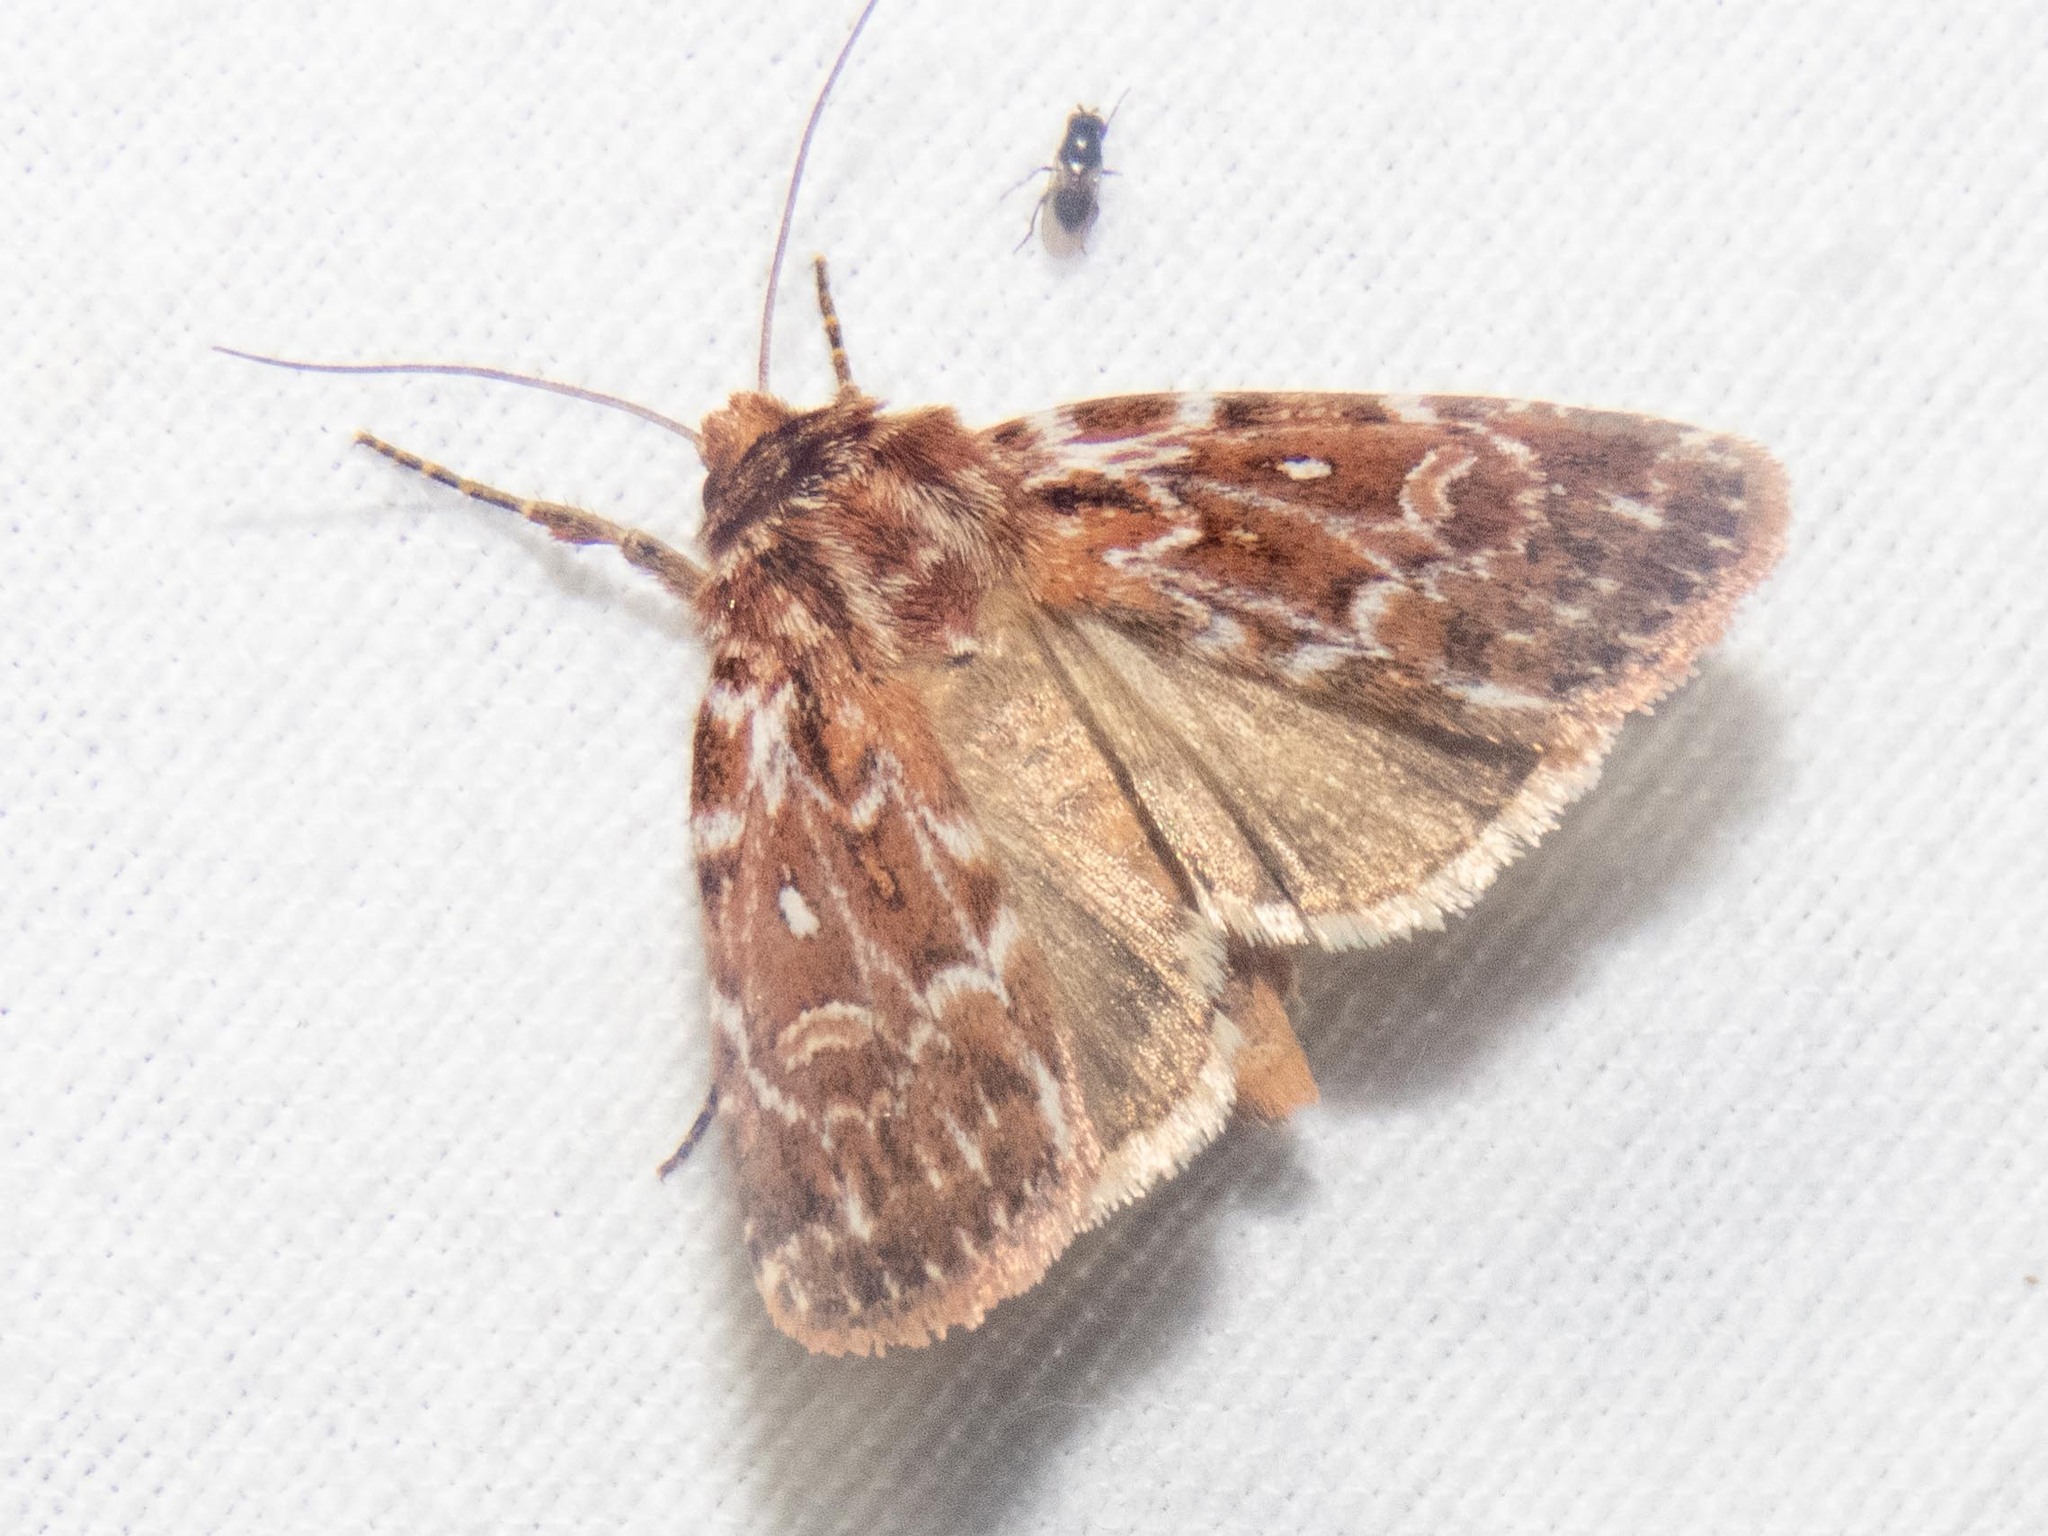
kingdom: Animalia
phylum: Arthropoda
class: Insecta
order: Lepidoptera
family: Noctuidae
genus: Lycophotia
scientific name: Lycophotia porphyrea
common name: True lover's knot
